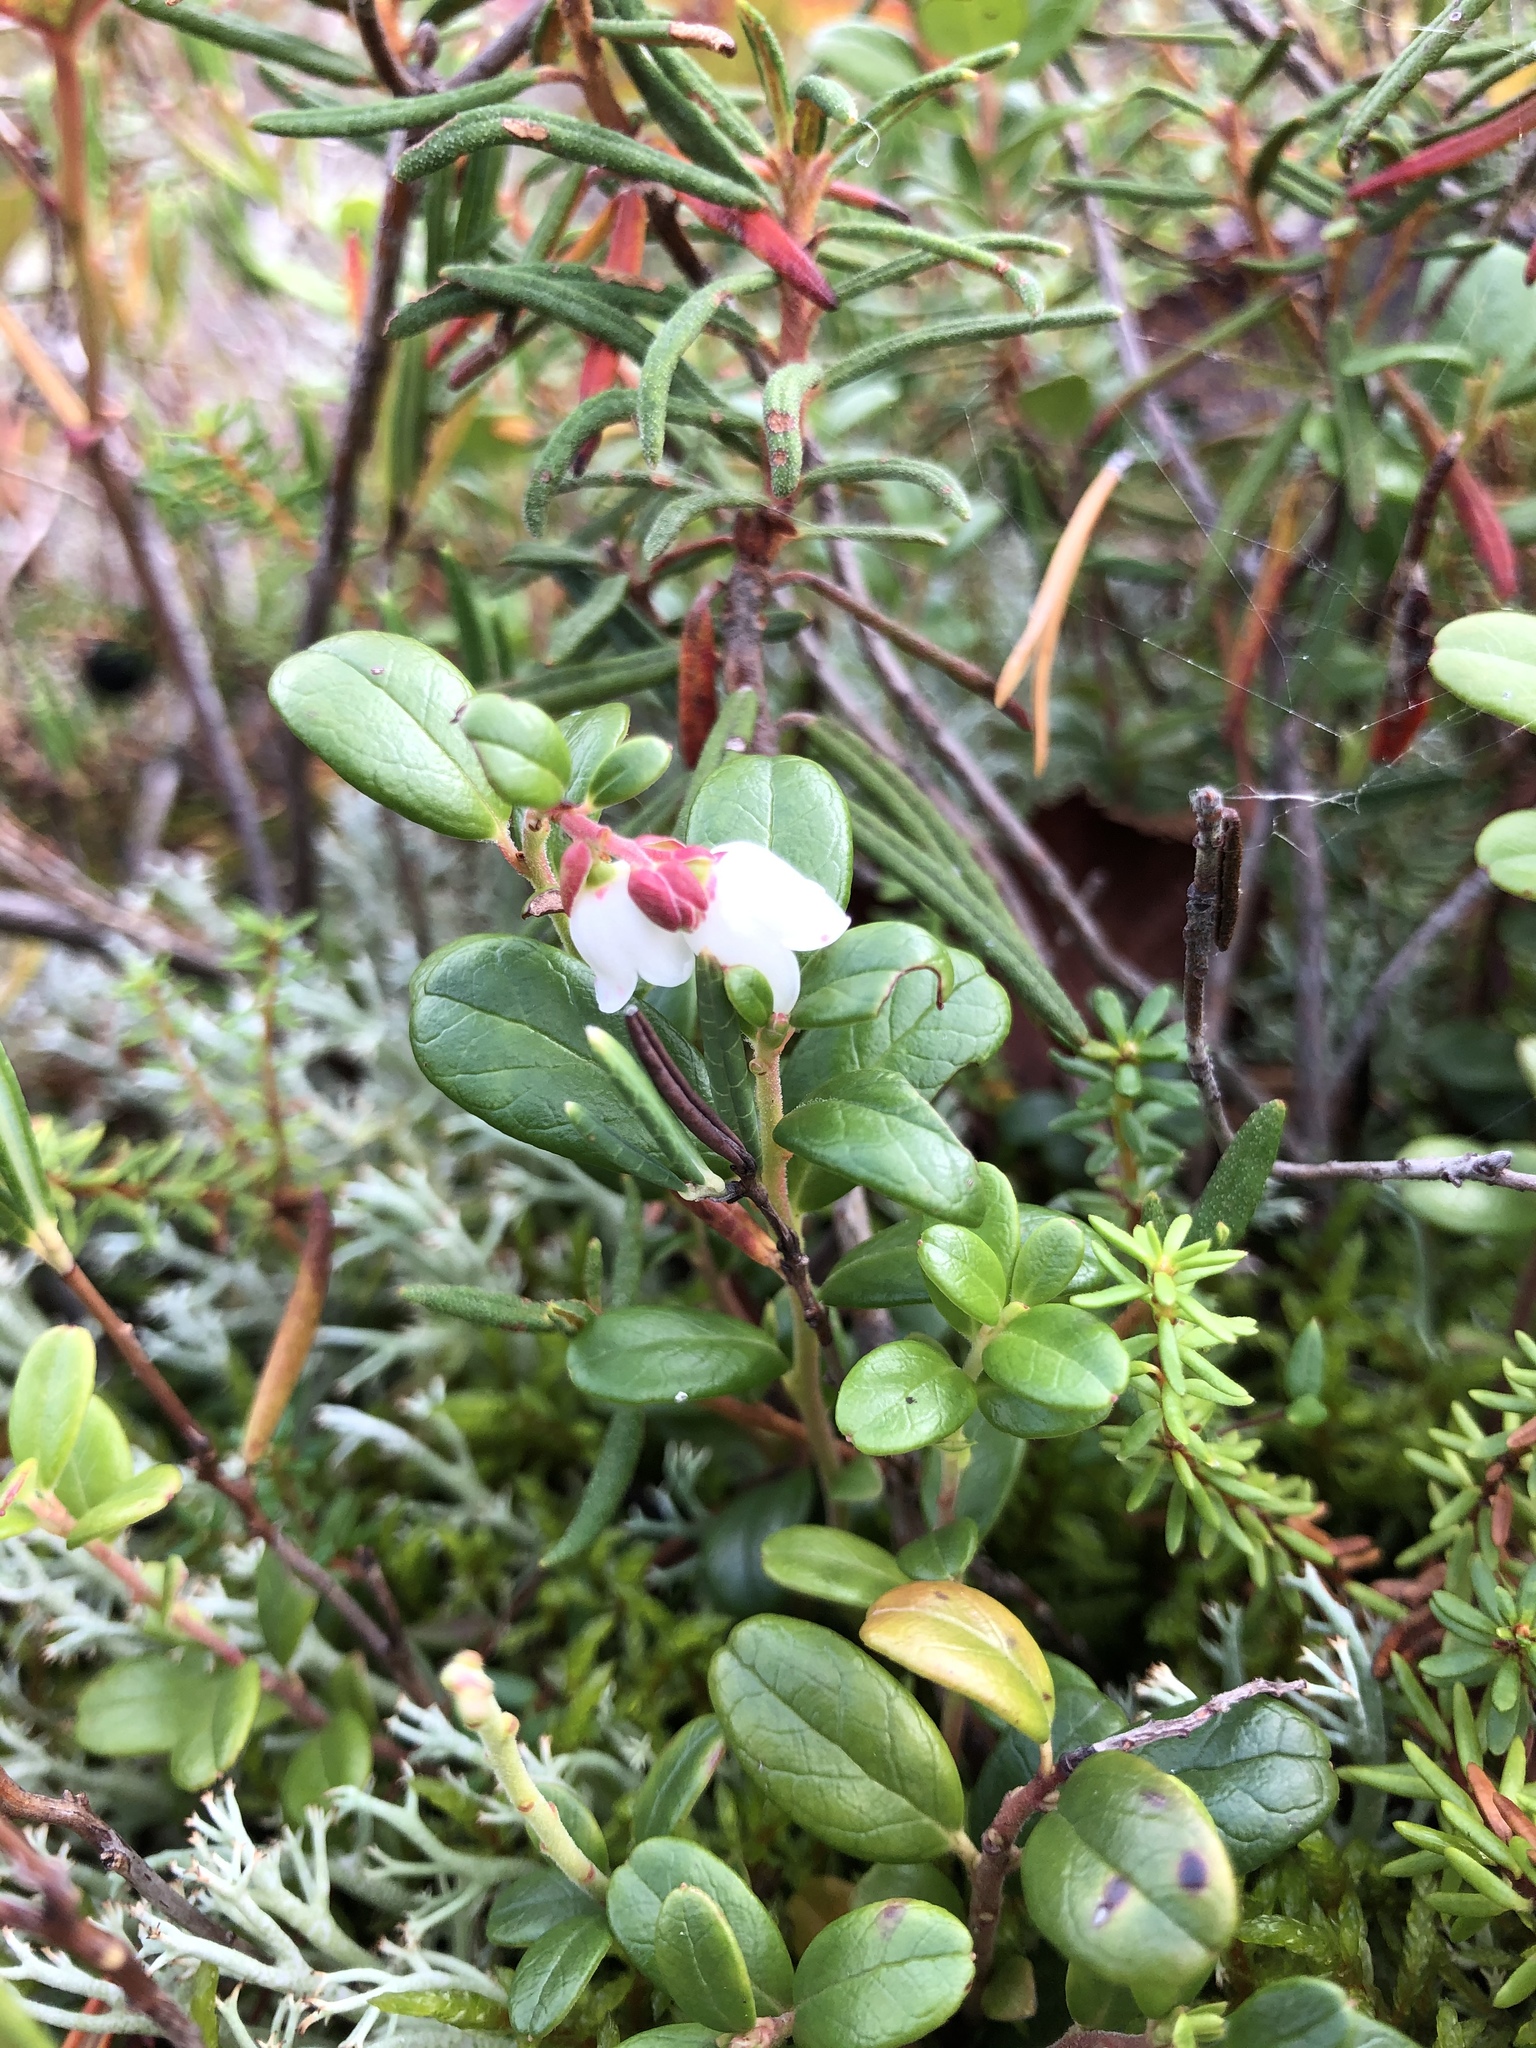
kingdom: Plantae
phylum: Tracheophyta
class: Magnoliopsida
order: Ericales
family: Ericaceae
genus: Vaccinium
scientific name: Vaccinium vitis-idaea
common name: Cowberry
